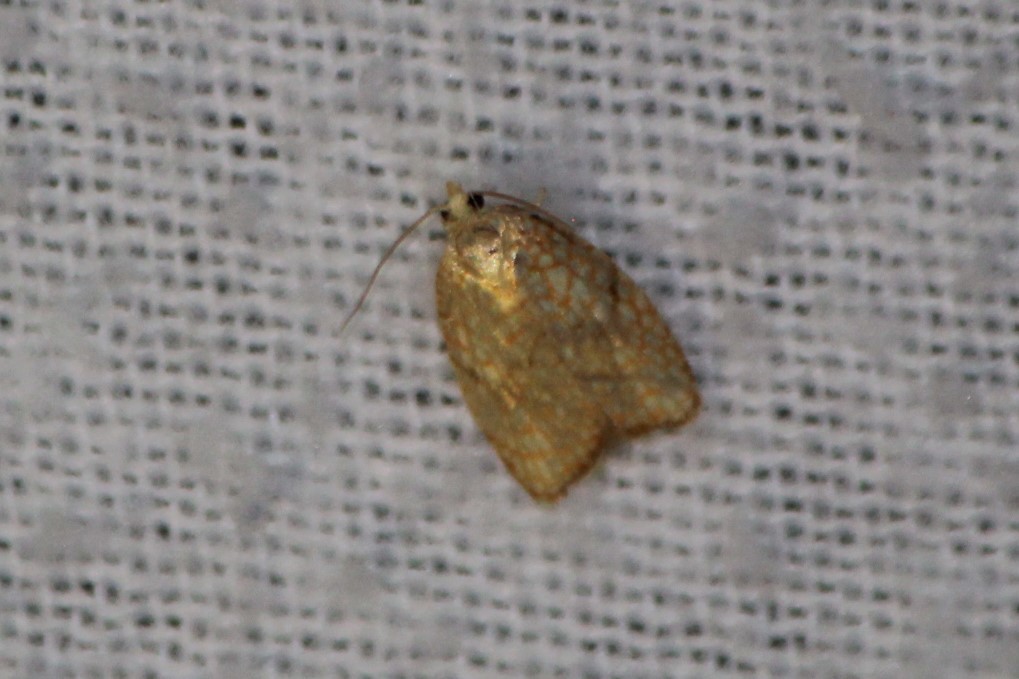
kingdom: Animalia
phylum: Arthropoda
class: Insecta
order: Lepidoptera
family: Tortricidae
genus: Acleris
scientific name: Acleris forsskaleana
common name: Maple button
